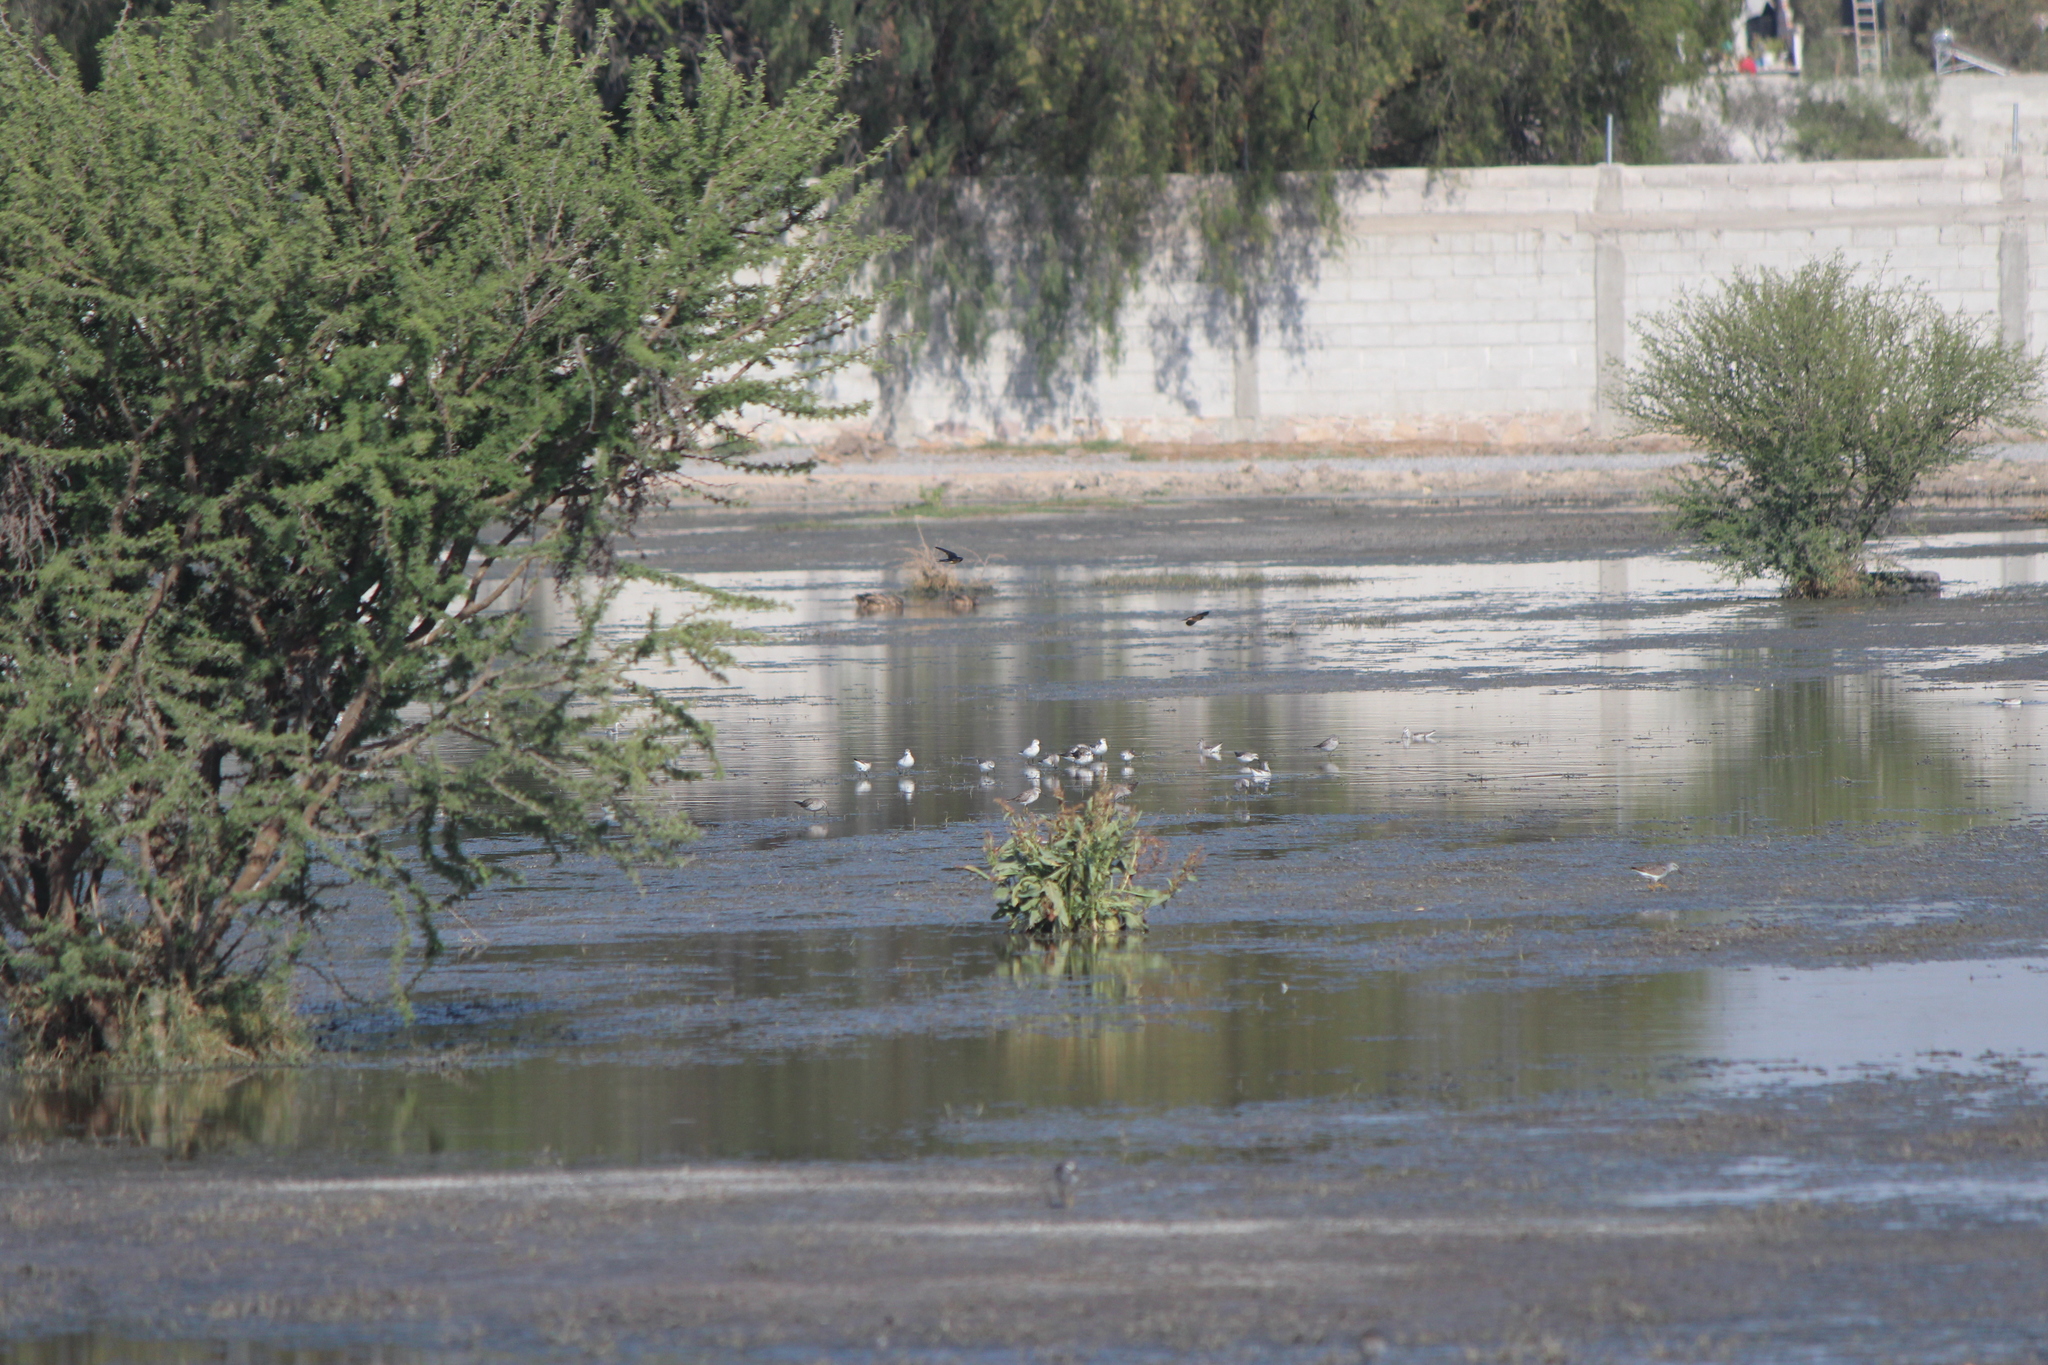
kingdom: Animalia
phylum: Chordata
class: Aves
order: Charadriiformes
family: Scolopacidae
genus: Phalaropus
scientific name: Phalaropus tricolor
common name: Wilson's phalarope
